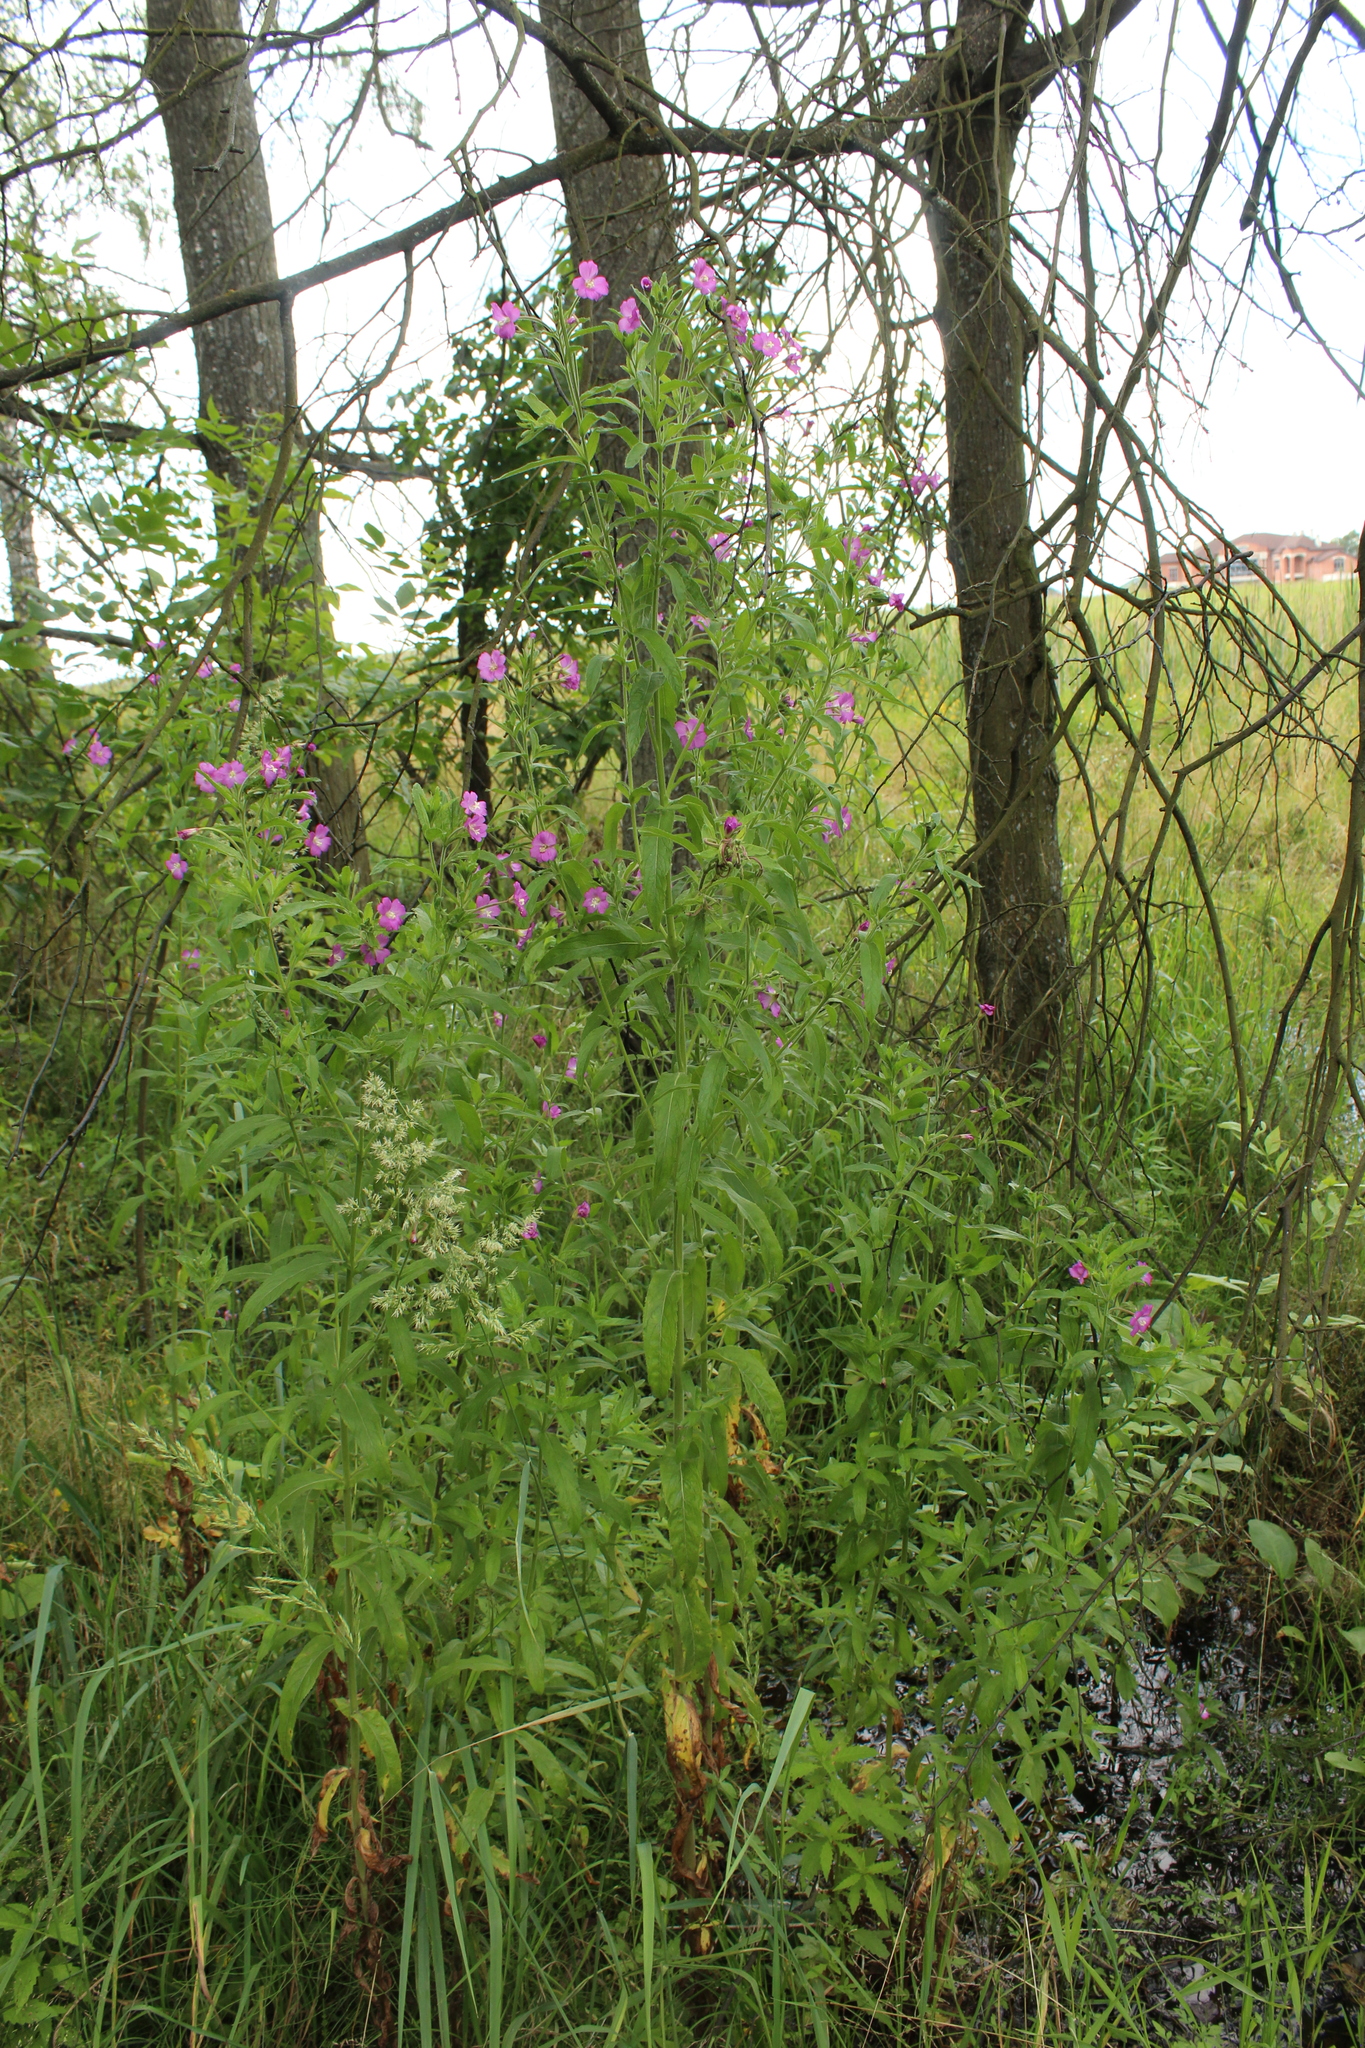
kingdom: Plantae
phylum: Tracheophyta
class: Magnoliopsida
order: Myrtales
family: Onagraceae
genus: Epilobium
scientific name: Epilobium hirsutum
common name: Great willowherb
